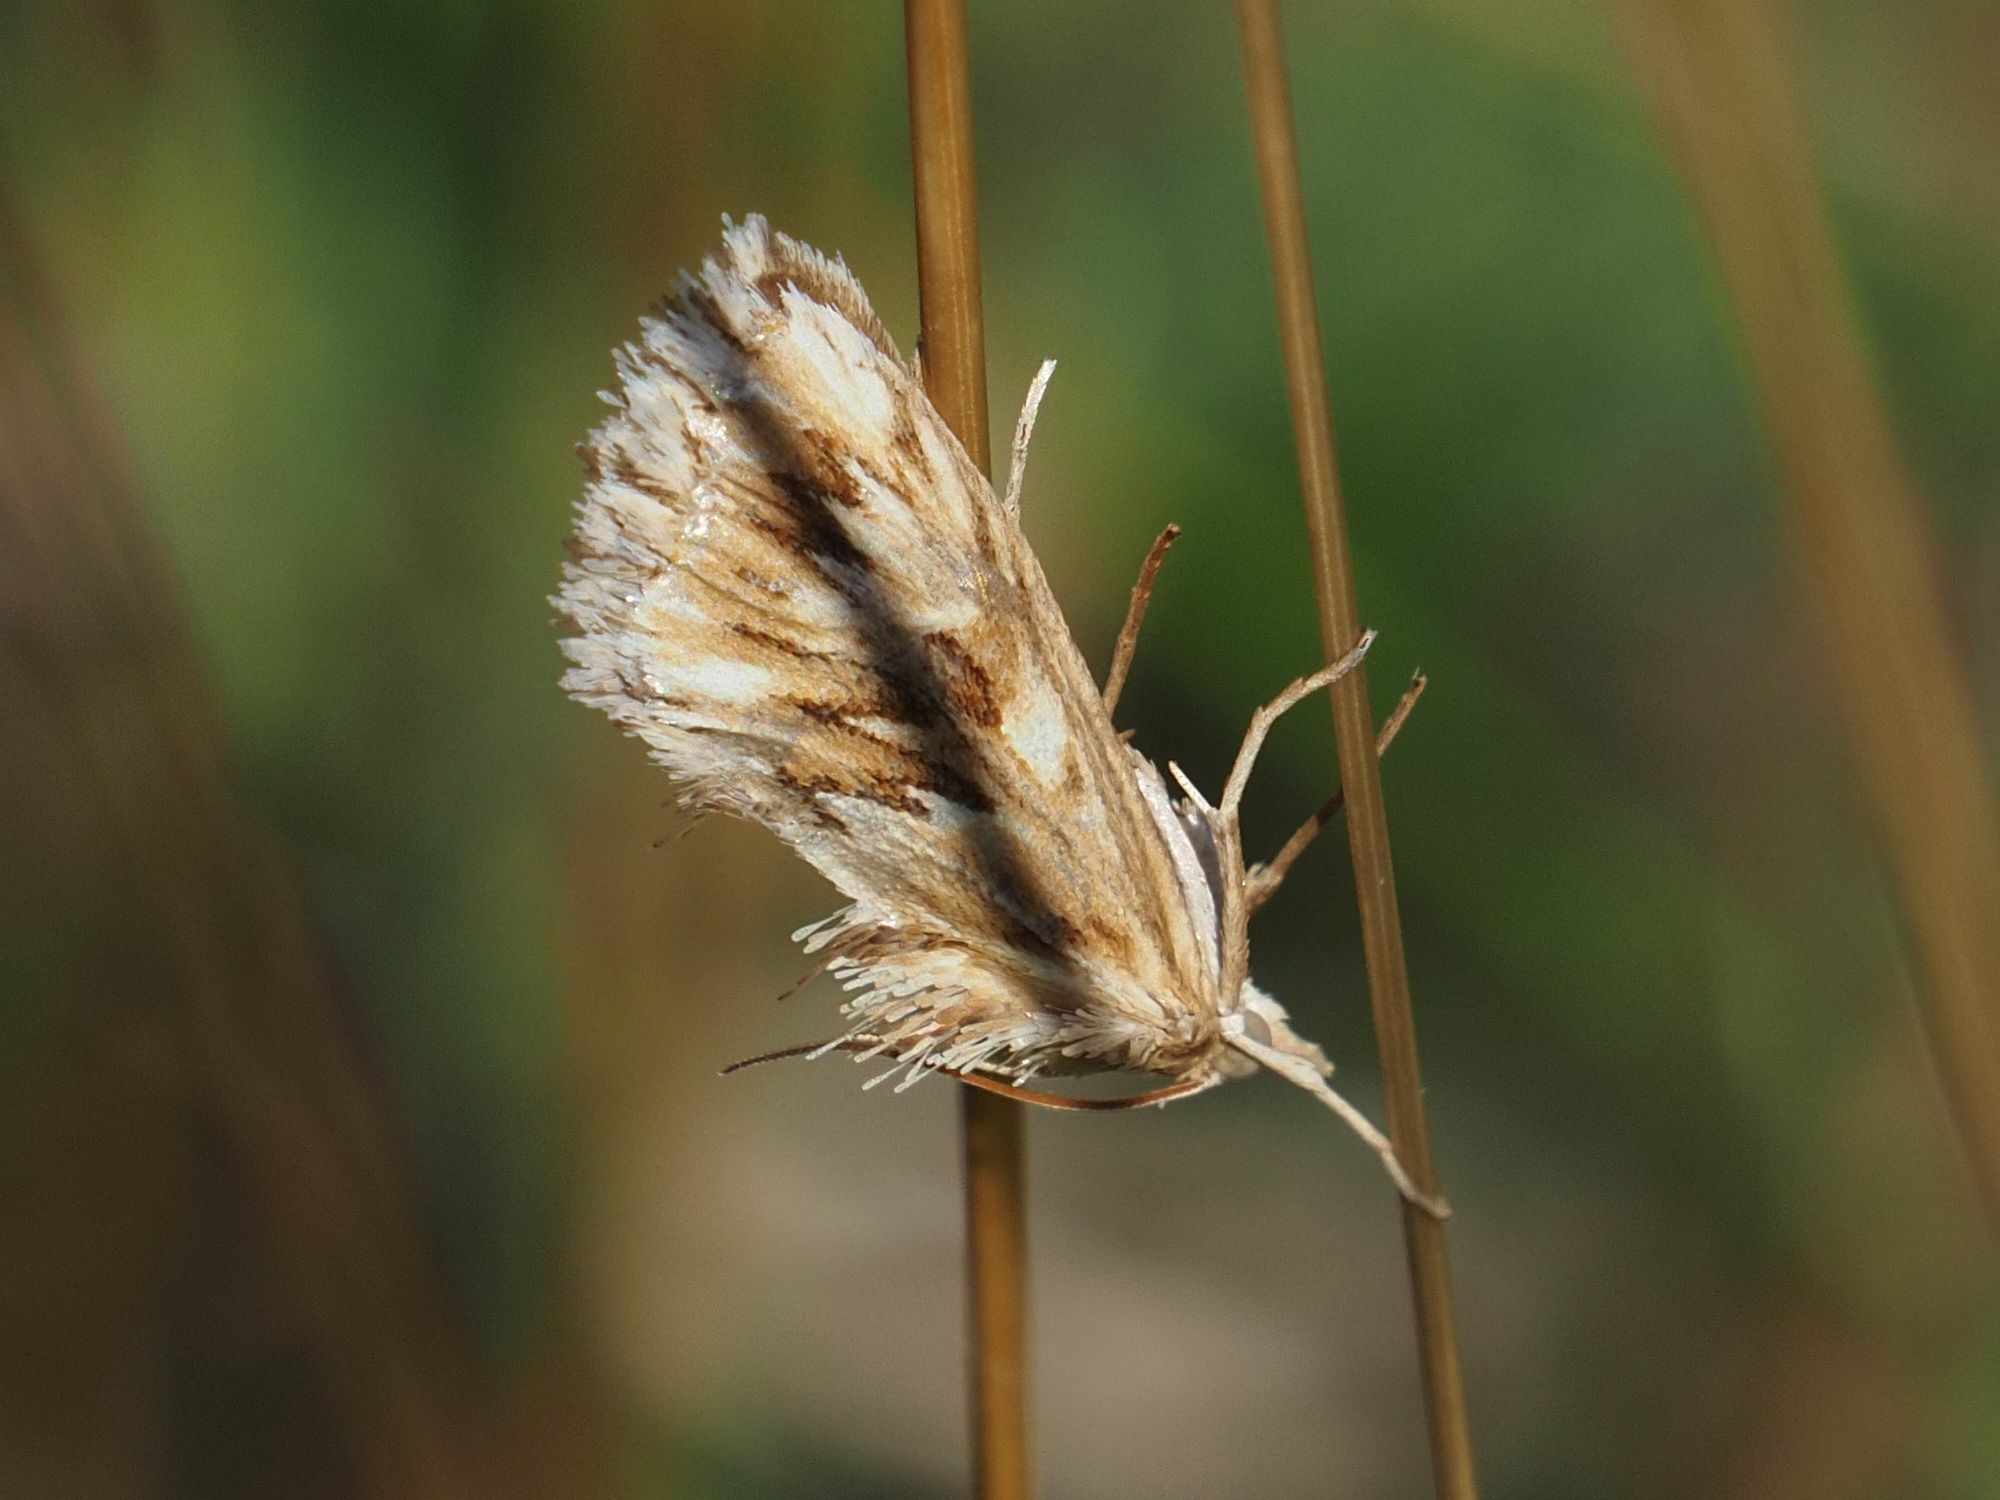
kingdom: Animalia
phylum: Arthropoda
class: Insecta
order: Lepidoptera
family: Crambidae
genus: Cynaeda
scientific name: Cynaeda dentalis
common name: Starry pearl
